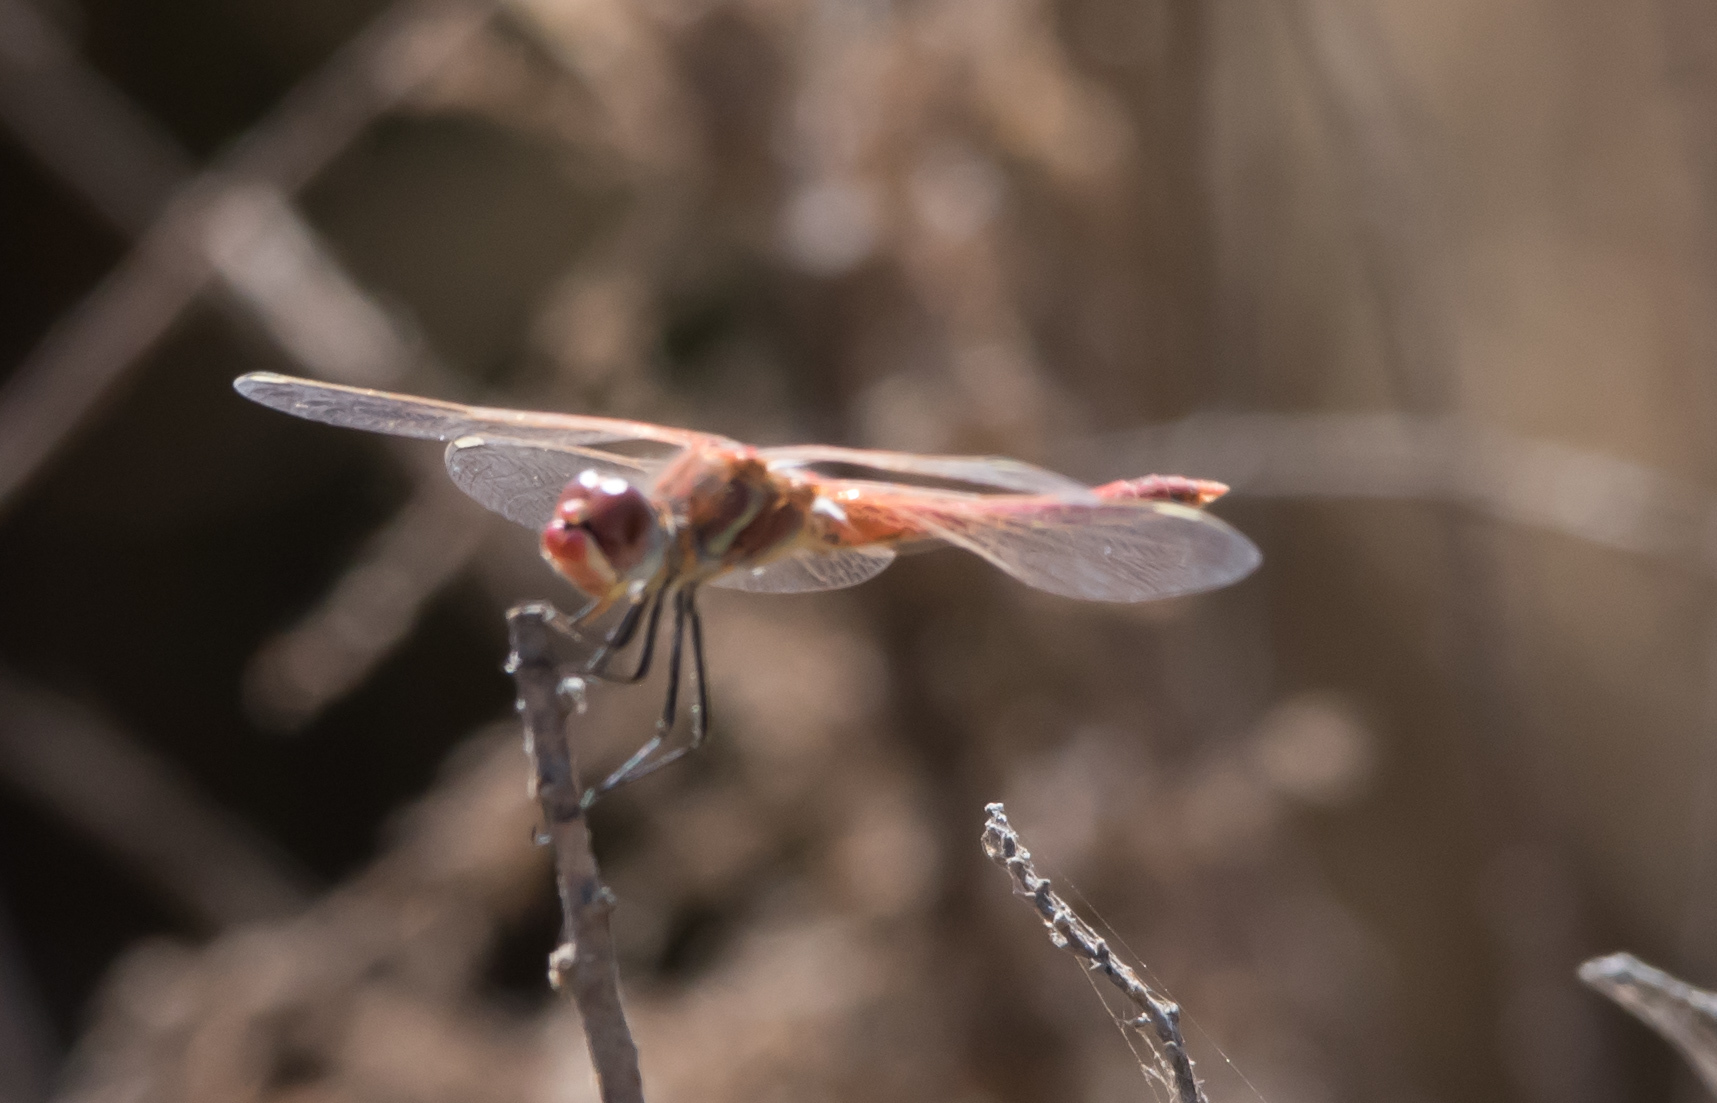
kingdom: Animalia
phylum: Arthropoda
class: Insecta
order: Odonata
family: Libellulidae
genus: Sympetrum
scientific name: Sympetrum fonscolombii
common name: Red-veined darter
